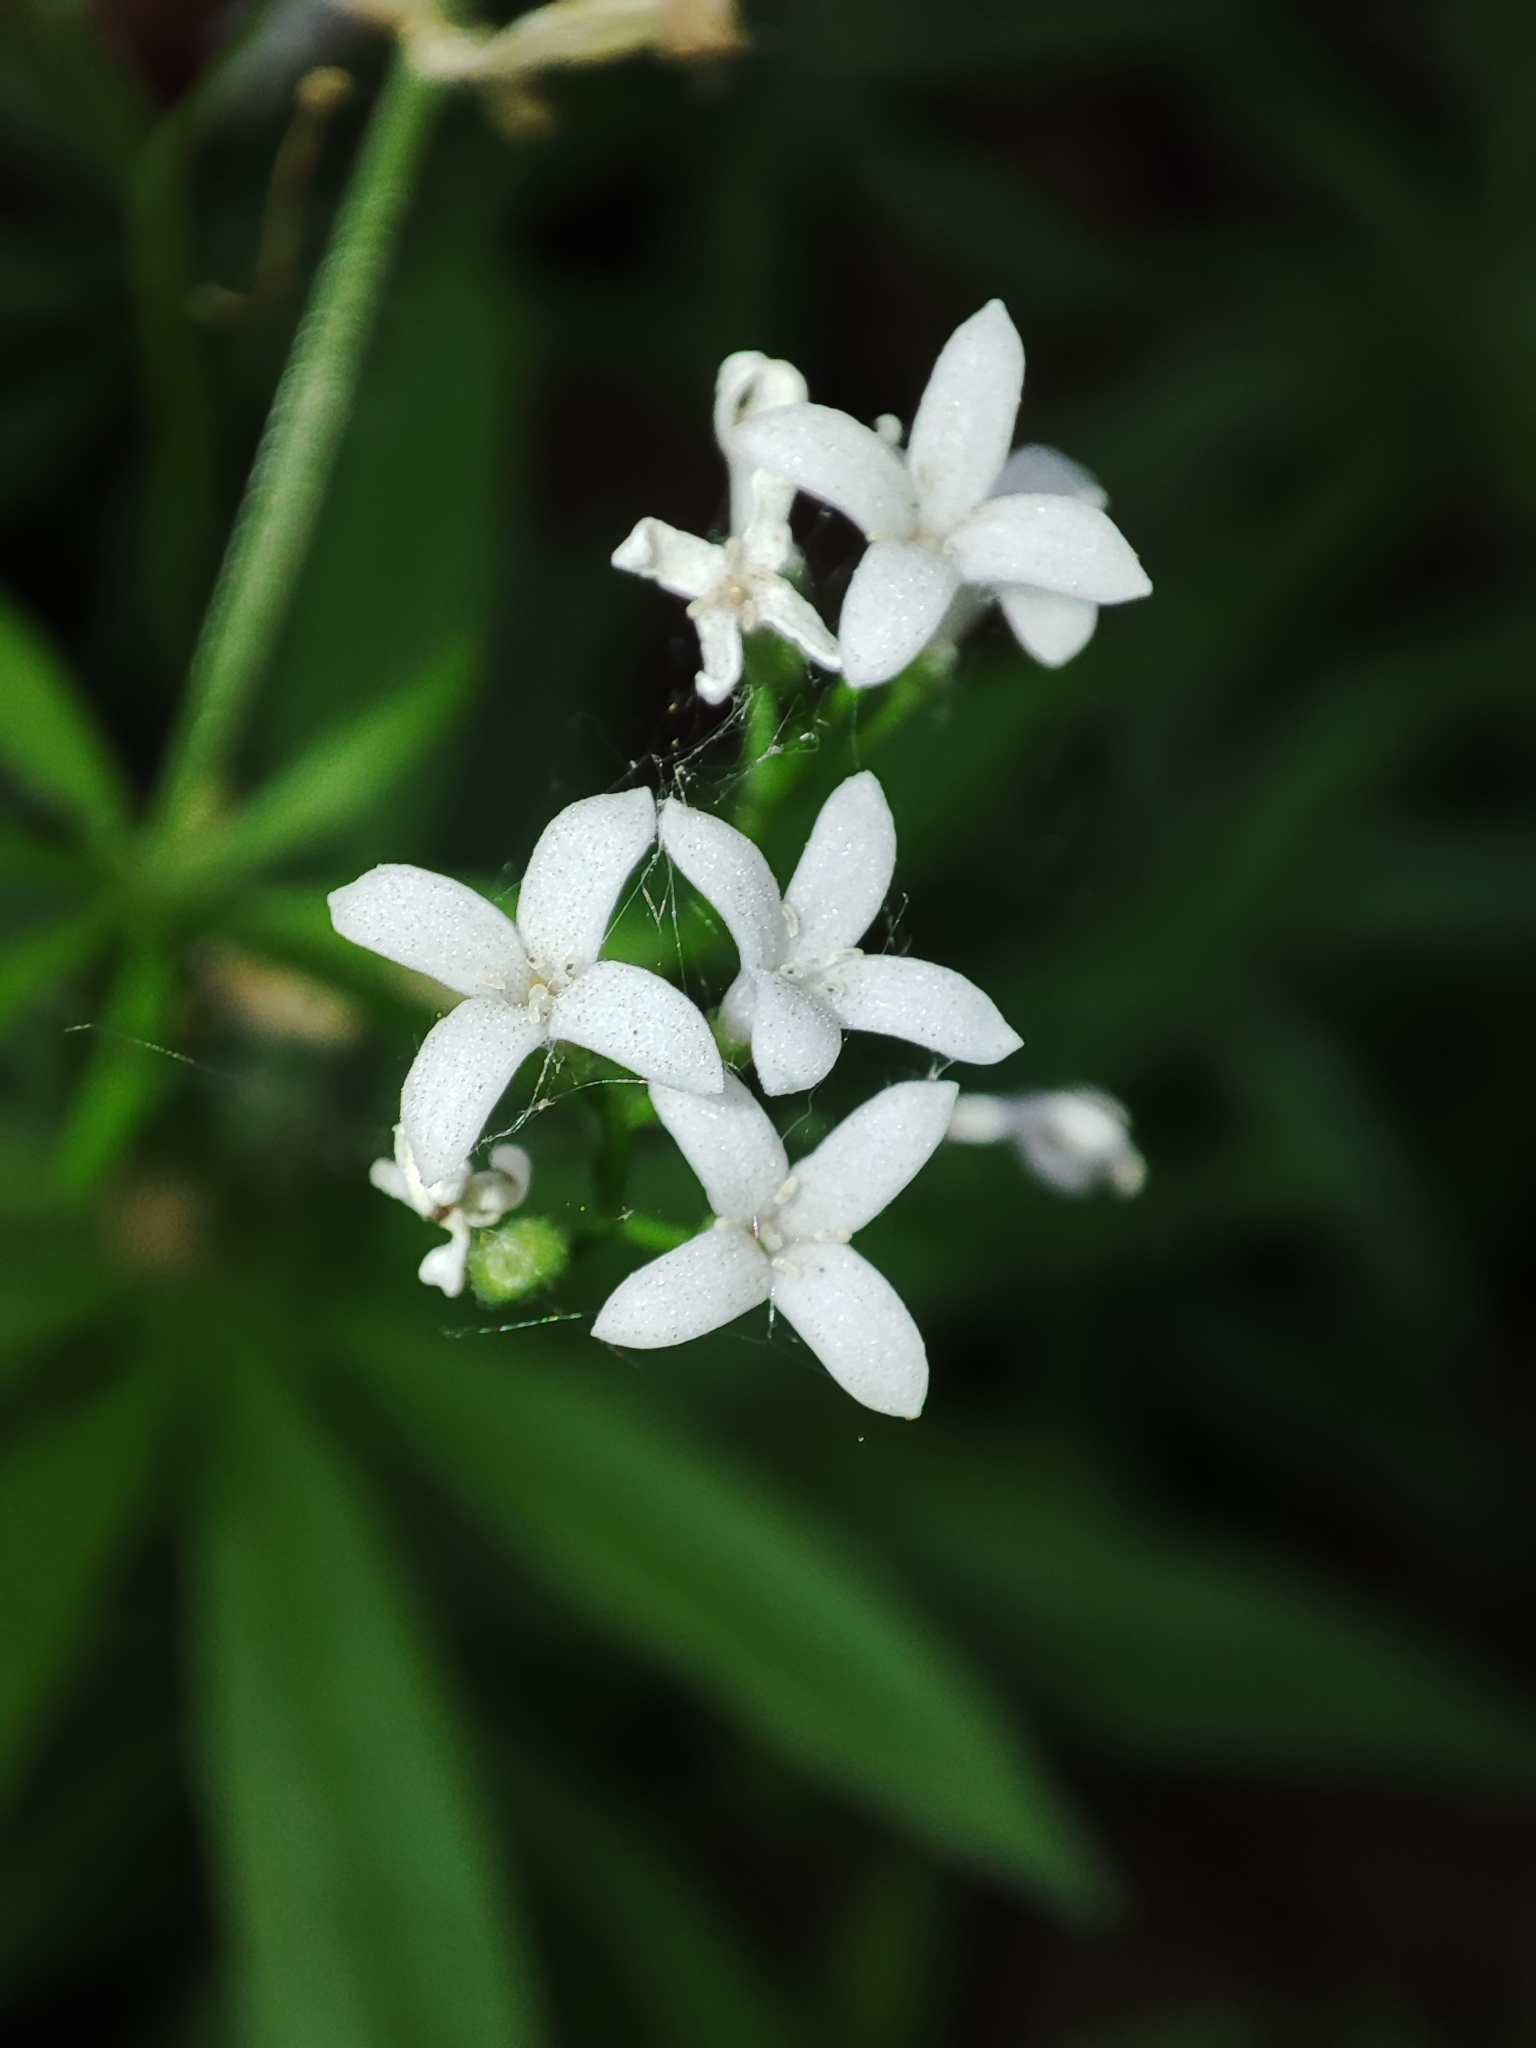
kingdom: Plantae
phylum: Tracheophyta
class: Magnoliopsida
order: Gentianales
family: Rubiaceae
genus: Galium
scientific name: Galium odoratum
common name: Sweet woodruff
